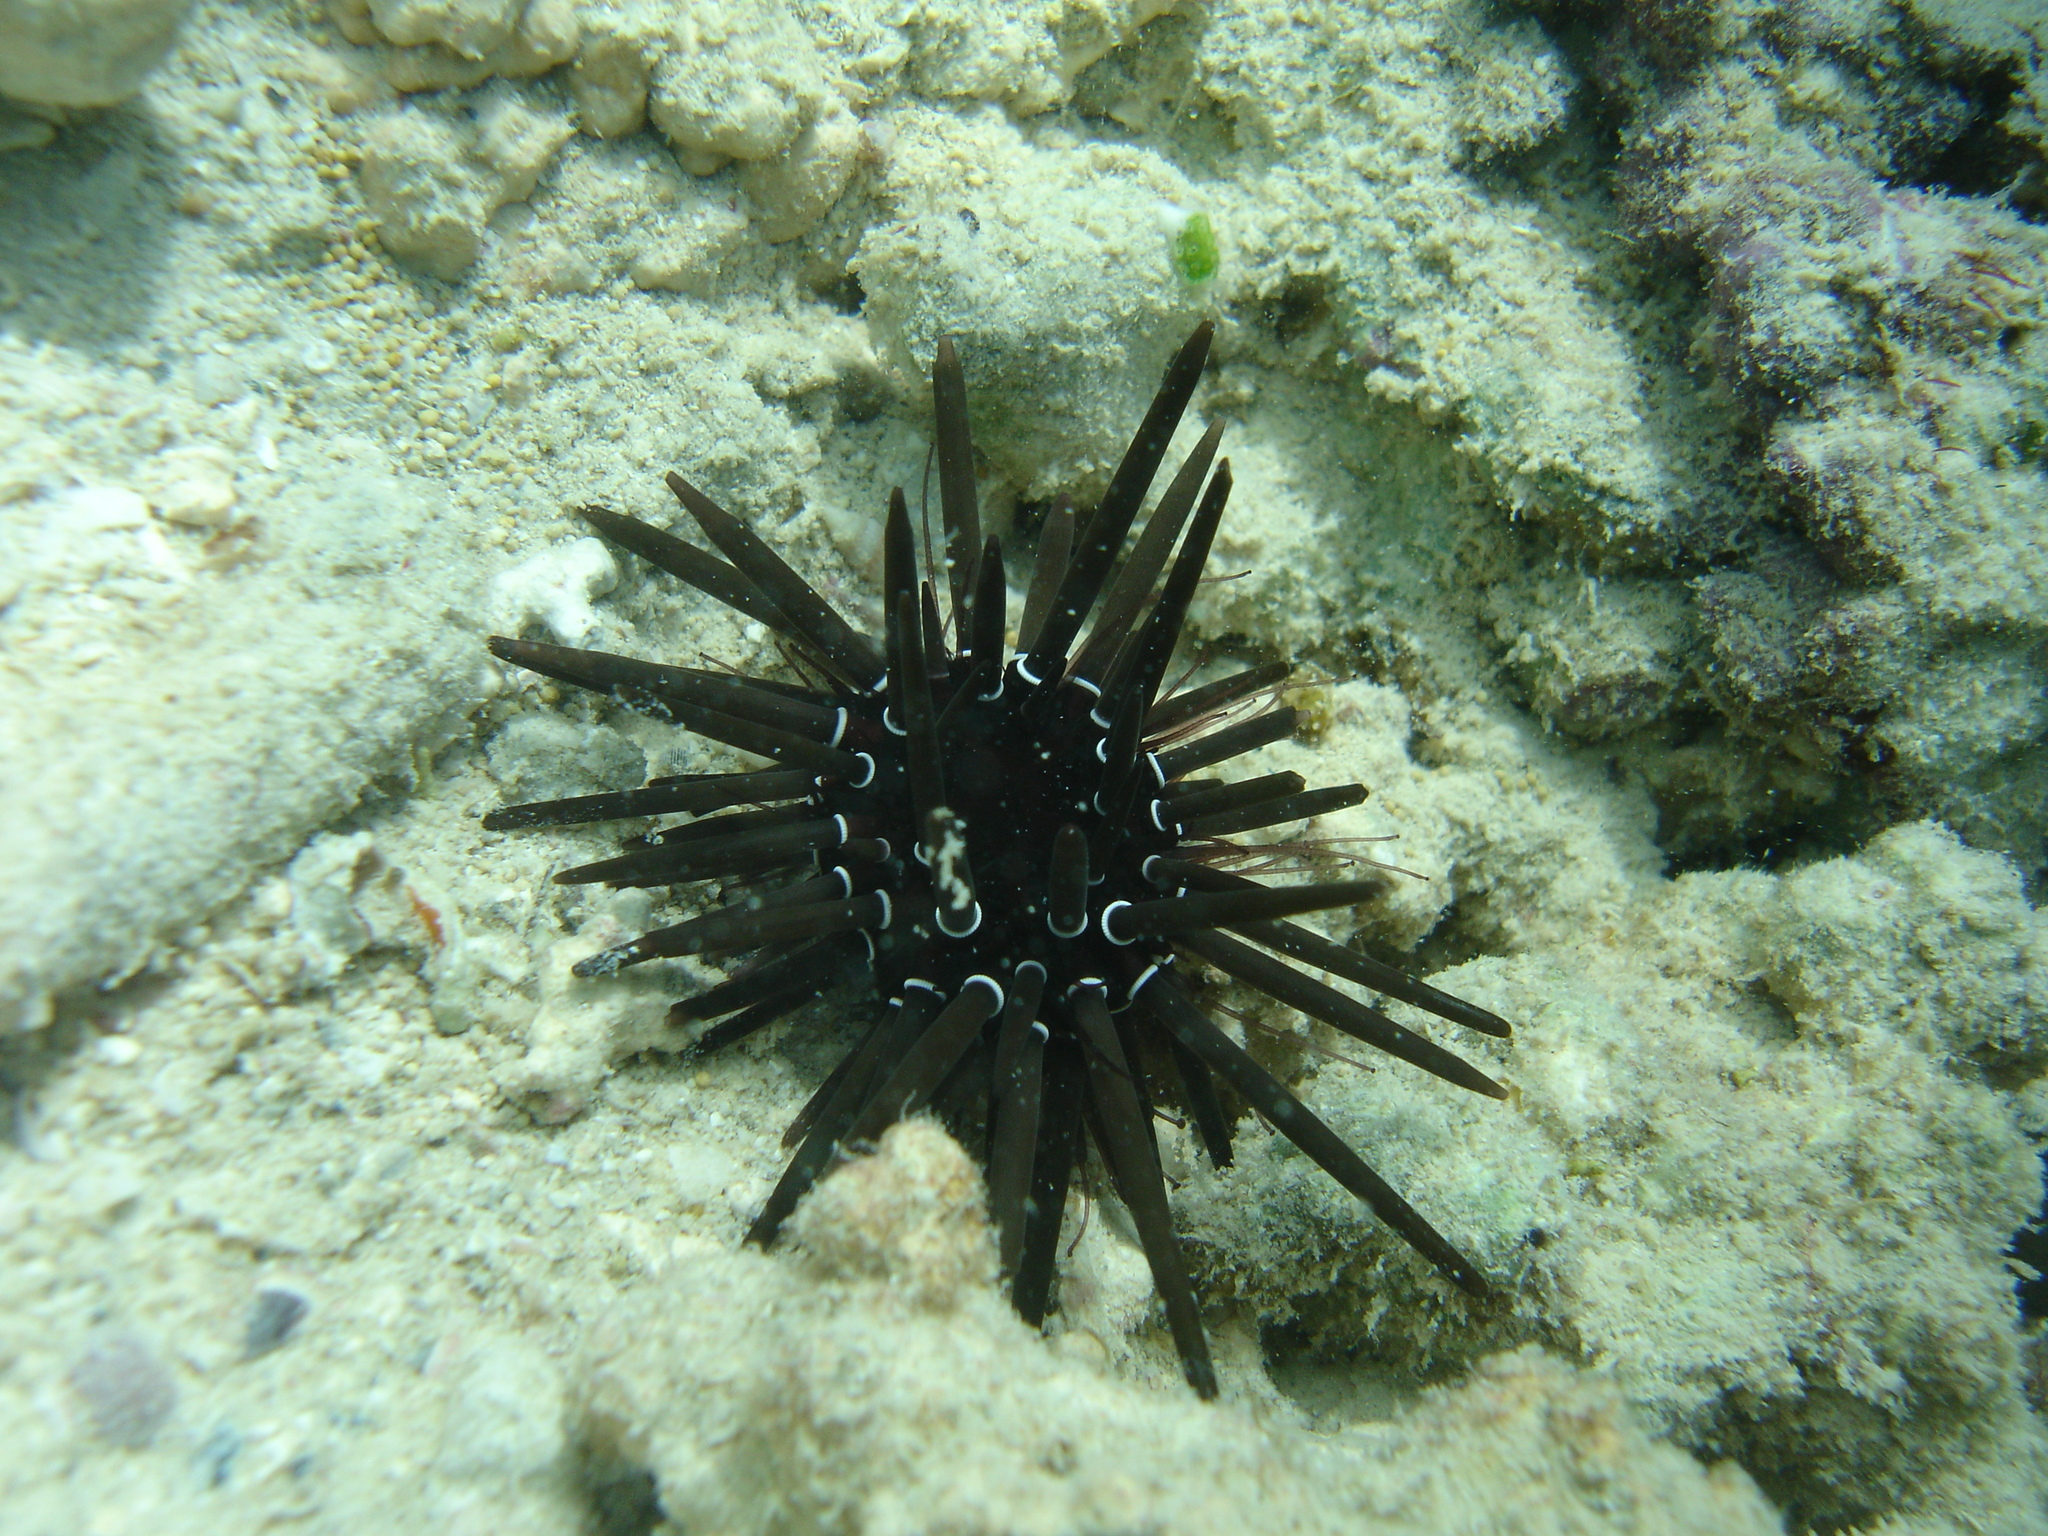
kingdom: Animalia
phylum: Echinodermata
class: Echinoidea
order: Camarodonta
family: Parasaleniidae
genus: Parasalenia
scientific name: Parasalenia gratiosa
